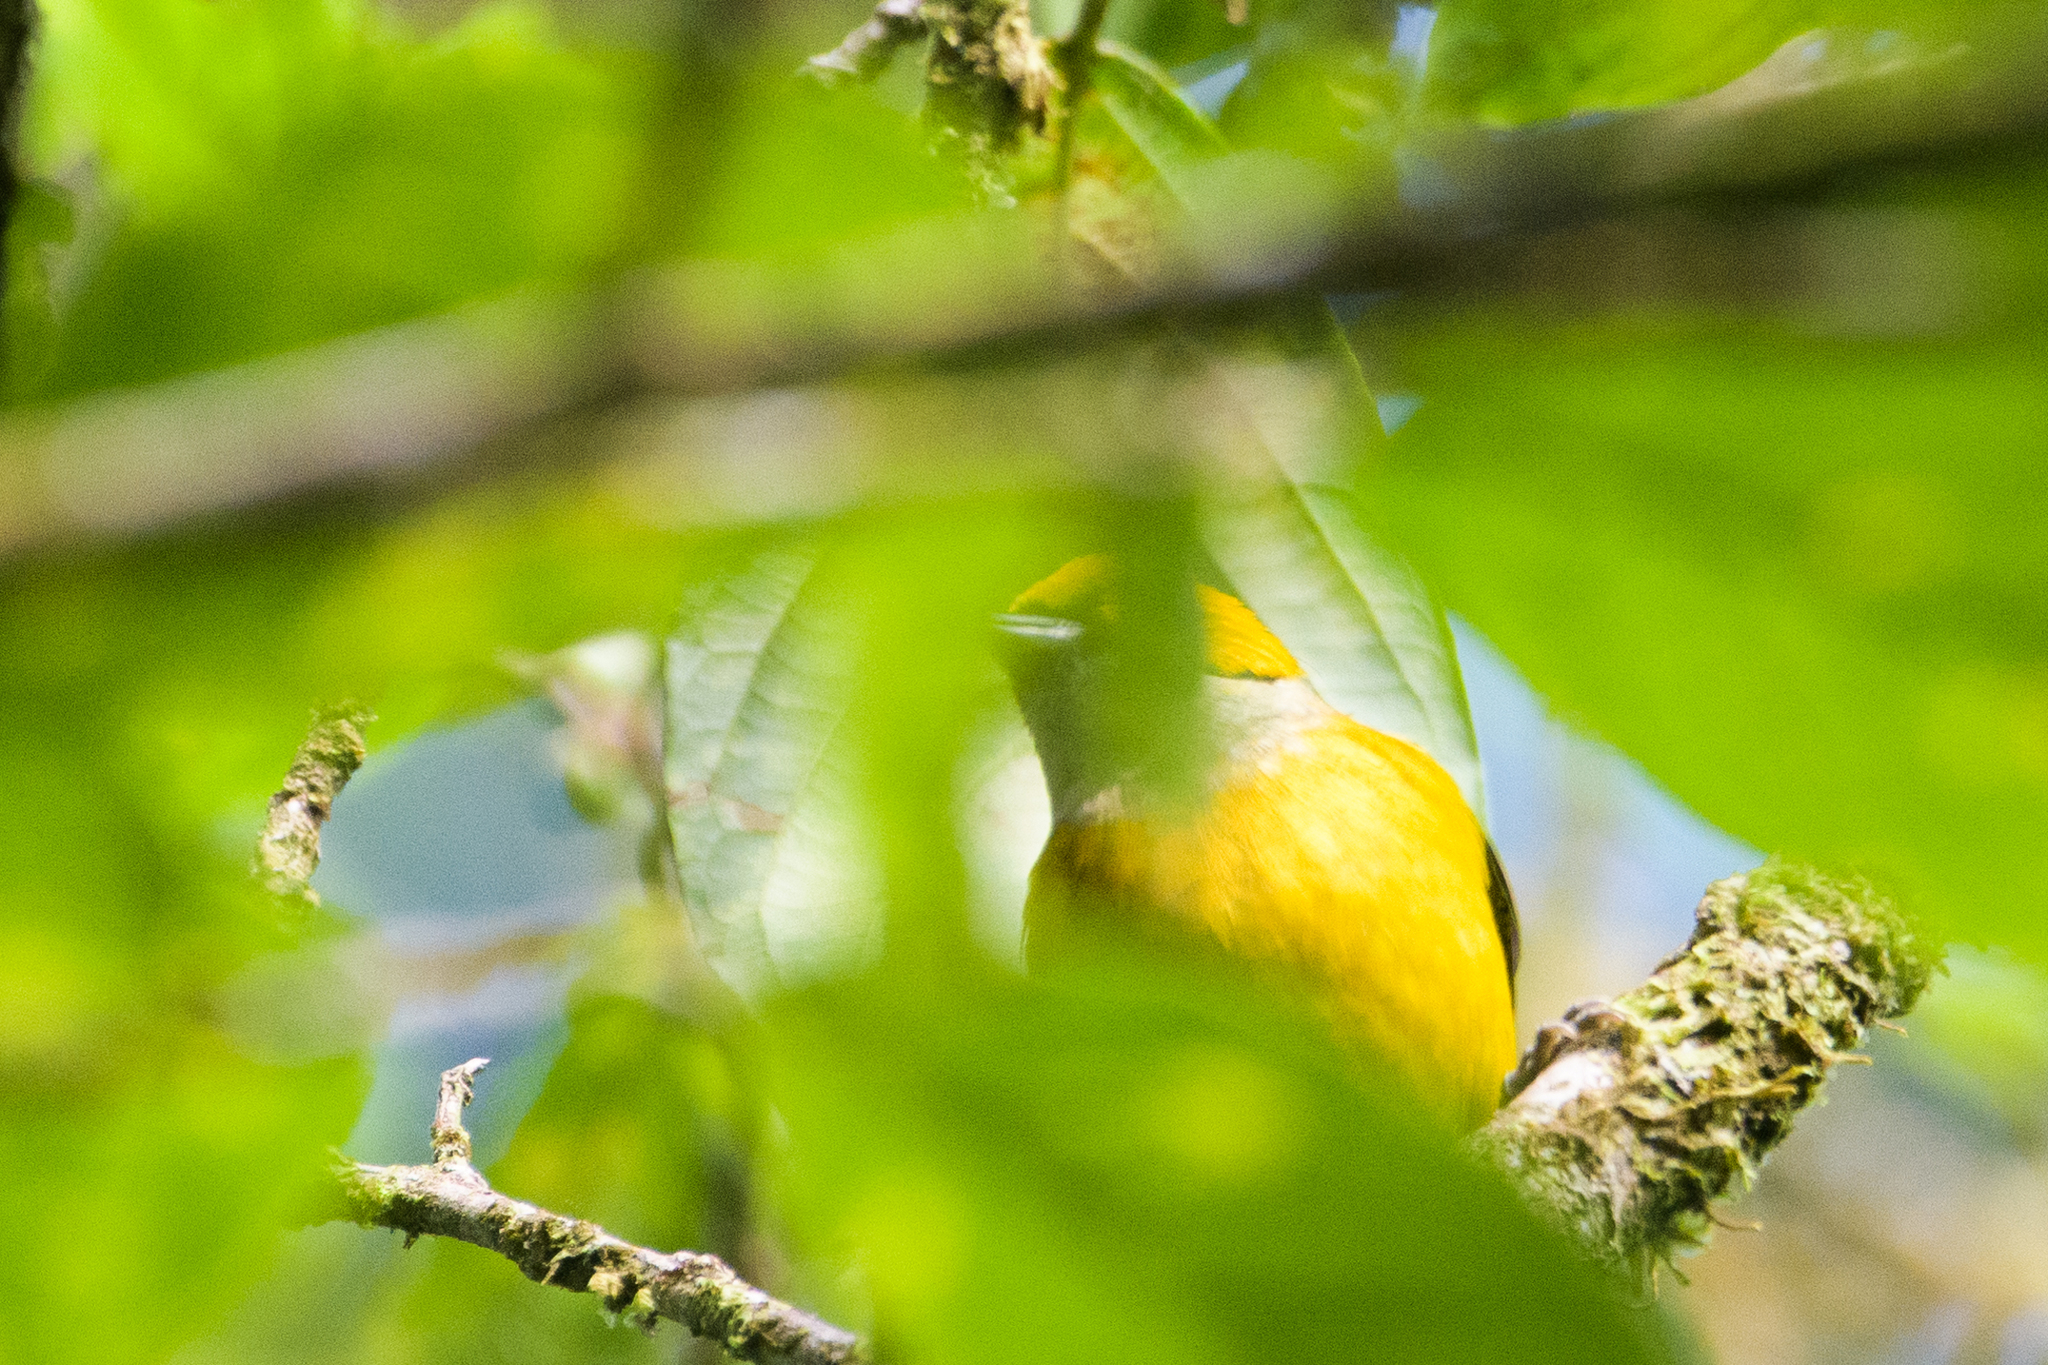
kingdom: Animalia
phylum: Chordata
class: Aves
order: Passeriformes
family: Thraupidae
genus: Tangara
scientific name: Tangara icterocephala
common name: Silver-throated tanager
